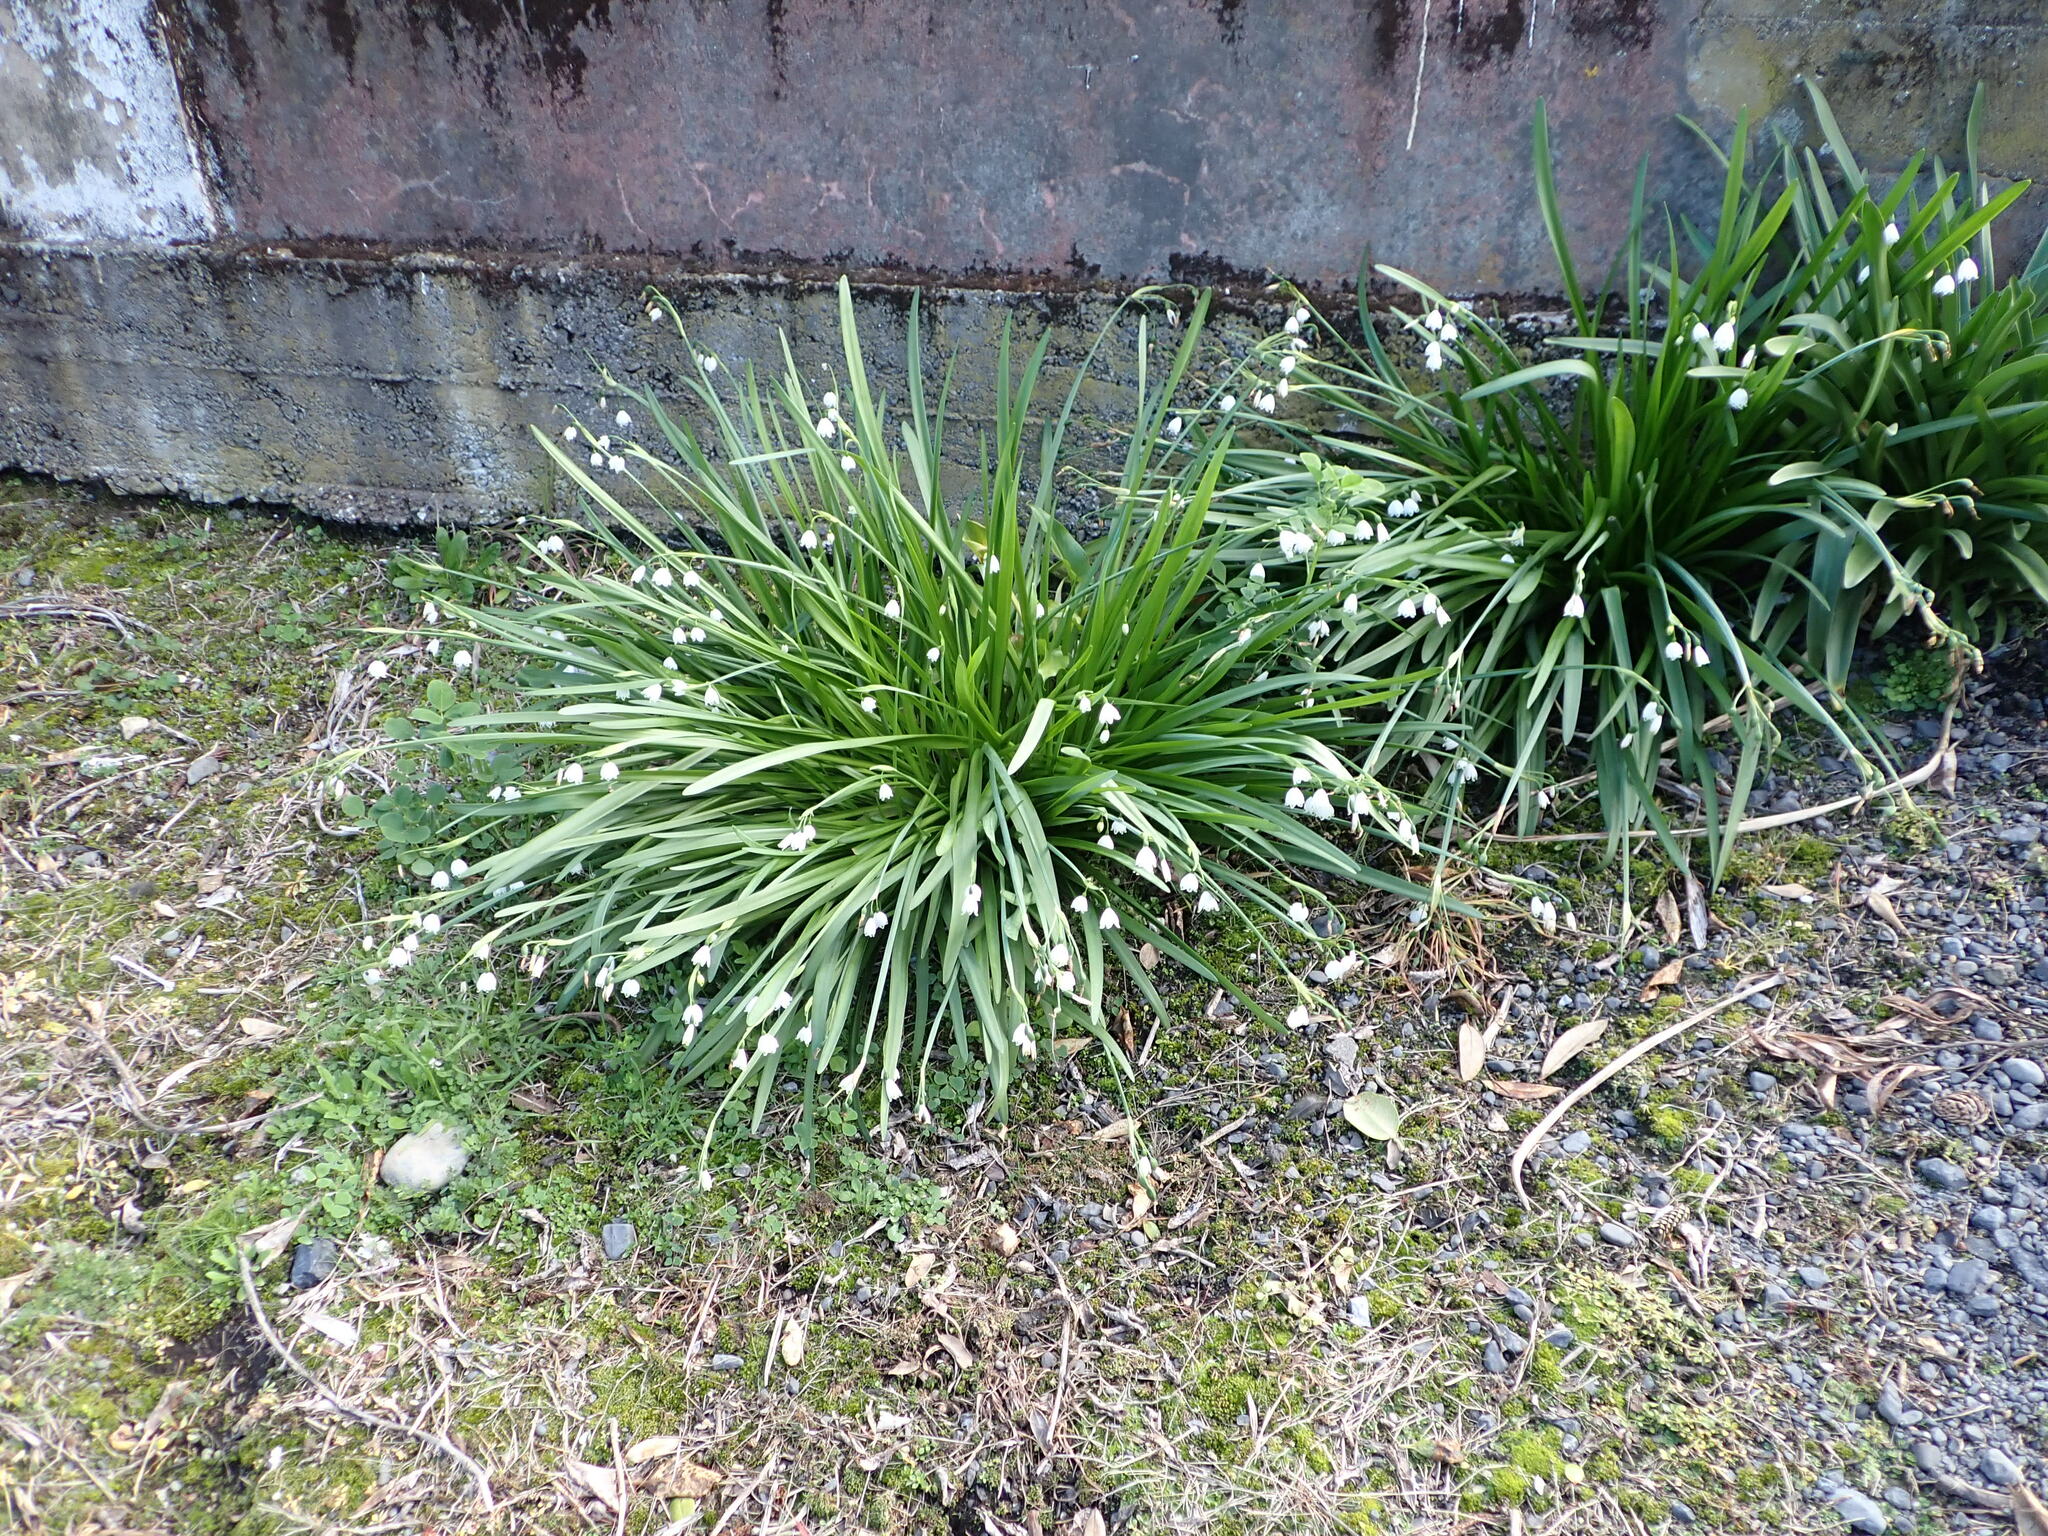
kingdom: Plantae
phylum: Tracheophyta
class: Liliopsida
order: Asparagales
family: Amaryllidaceae
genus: Leucojum
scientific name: Leucojum aestivum
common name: Summer snowflake
